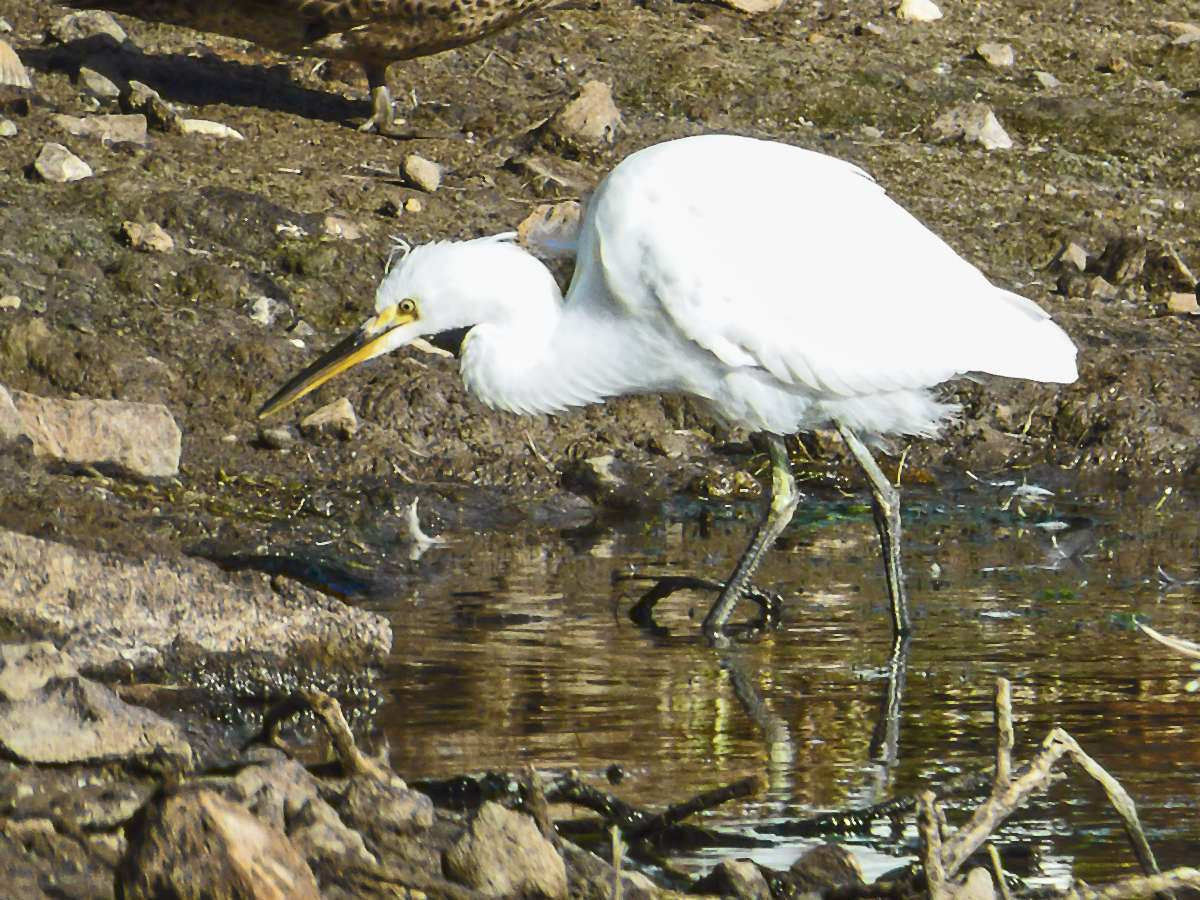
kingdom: Animalia
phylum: Chordata
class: Aves
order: Pelecaniformes
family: Ardeidae
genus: Egretta
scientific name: Egretta garzetta
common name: Little egret
